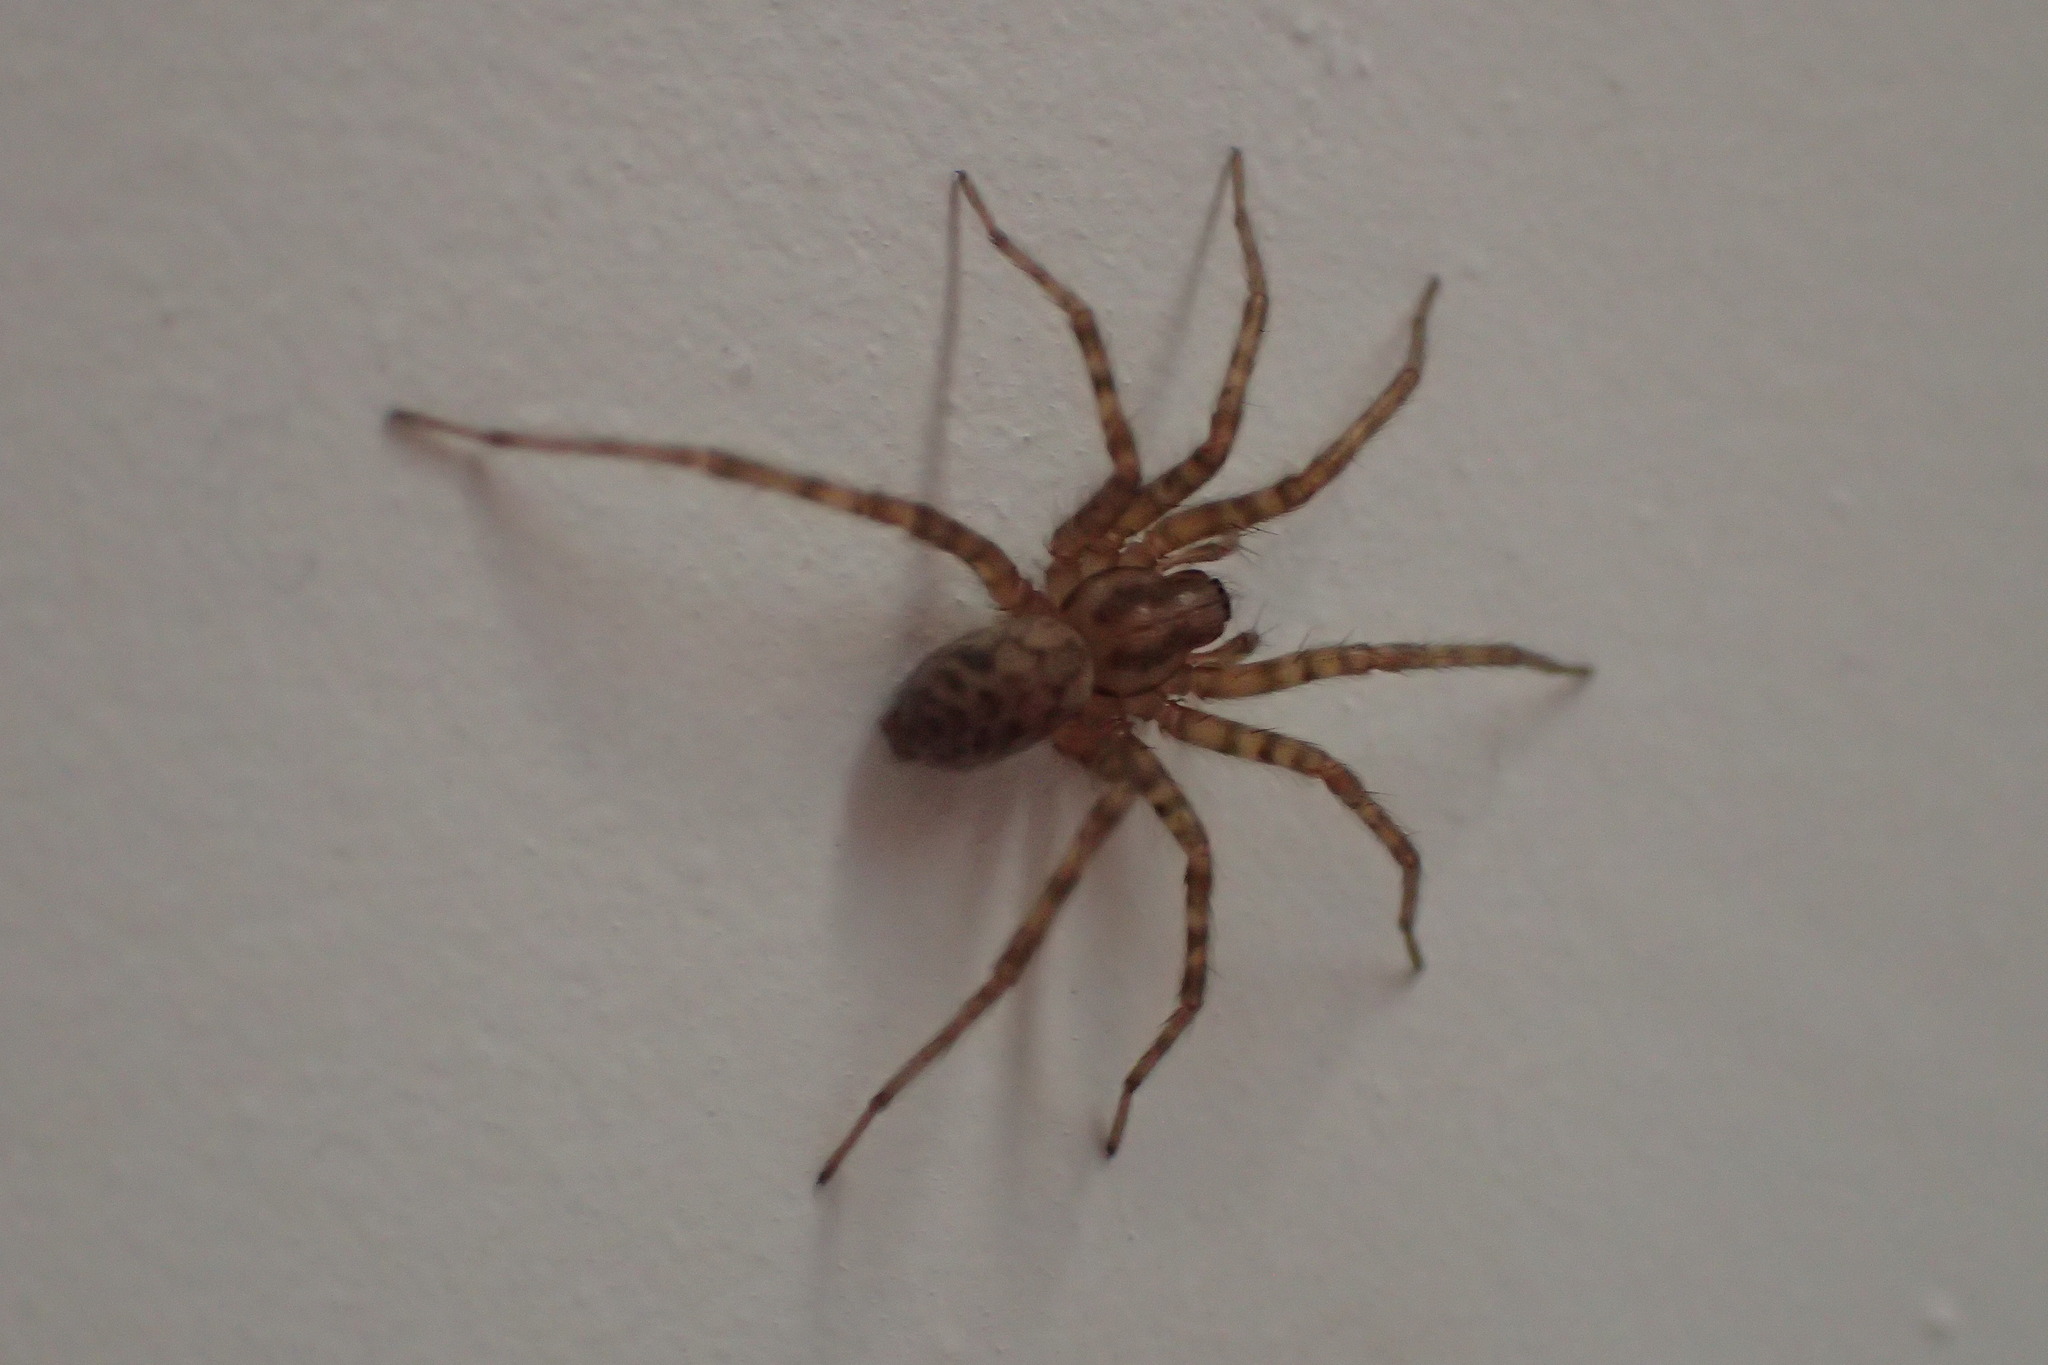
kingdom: Animalia
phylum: Arthropoda
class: Arachnida
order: Araneae
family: Agelenidae
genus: Tegenaria
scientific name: Tegenaria domestica
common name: Barn funnel weaver
